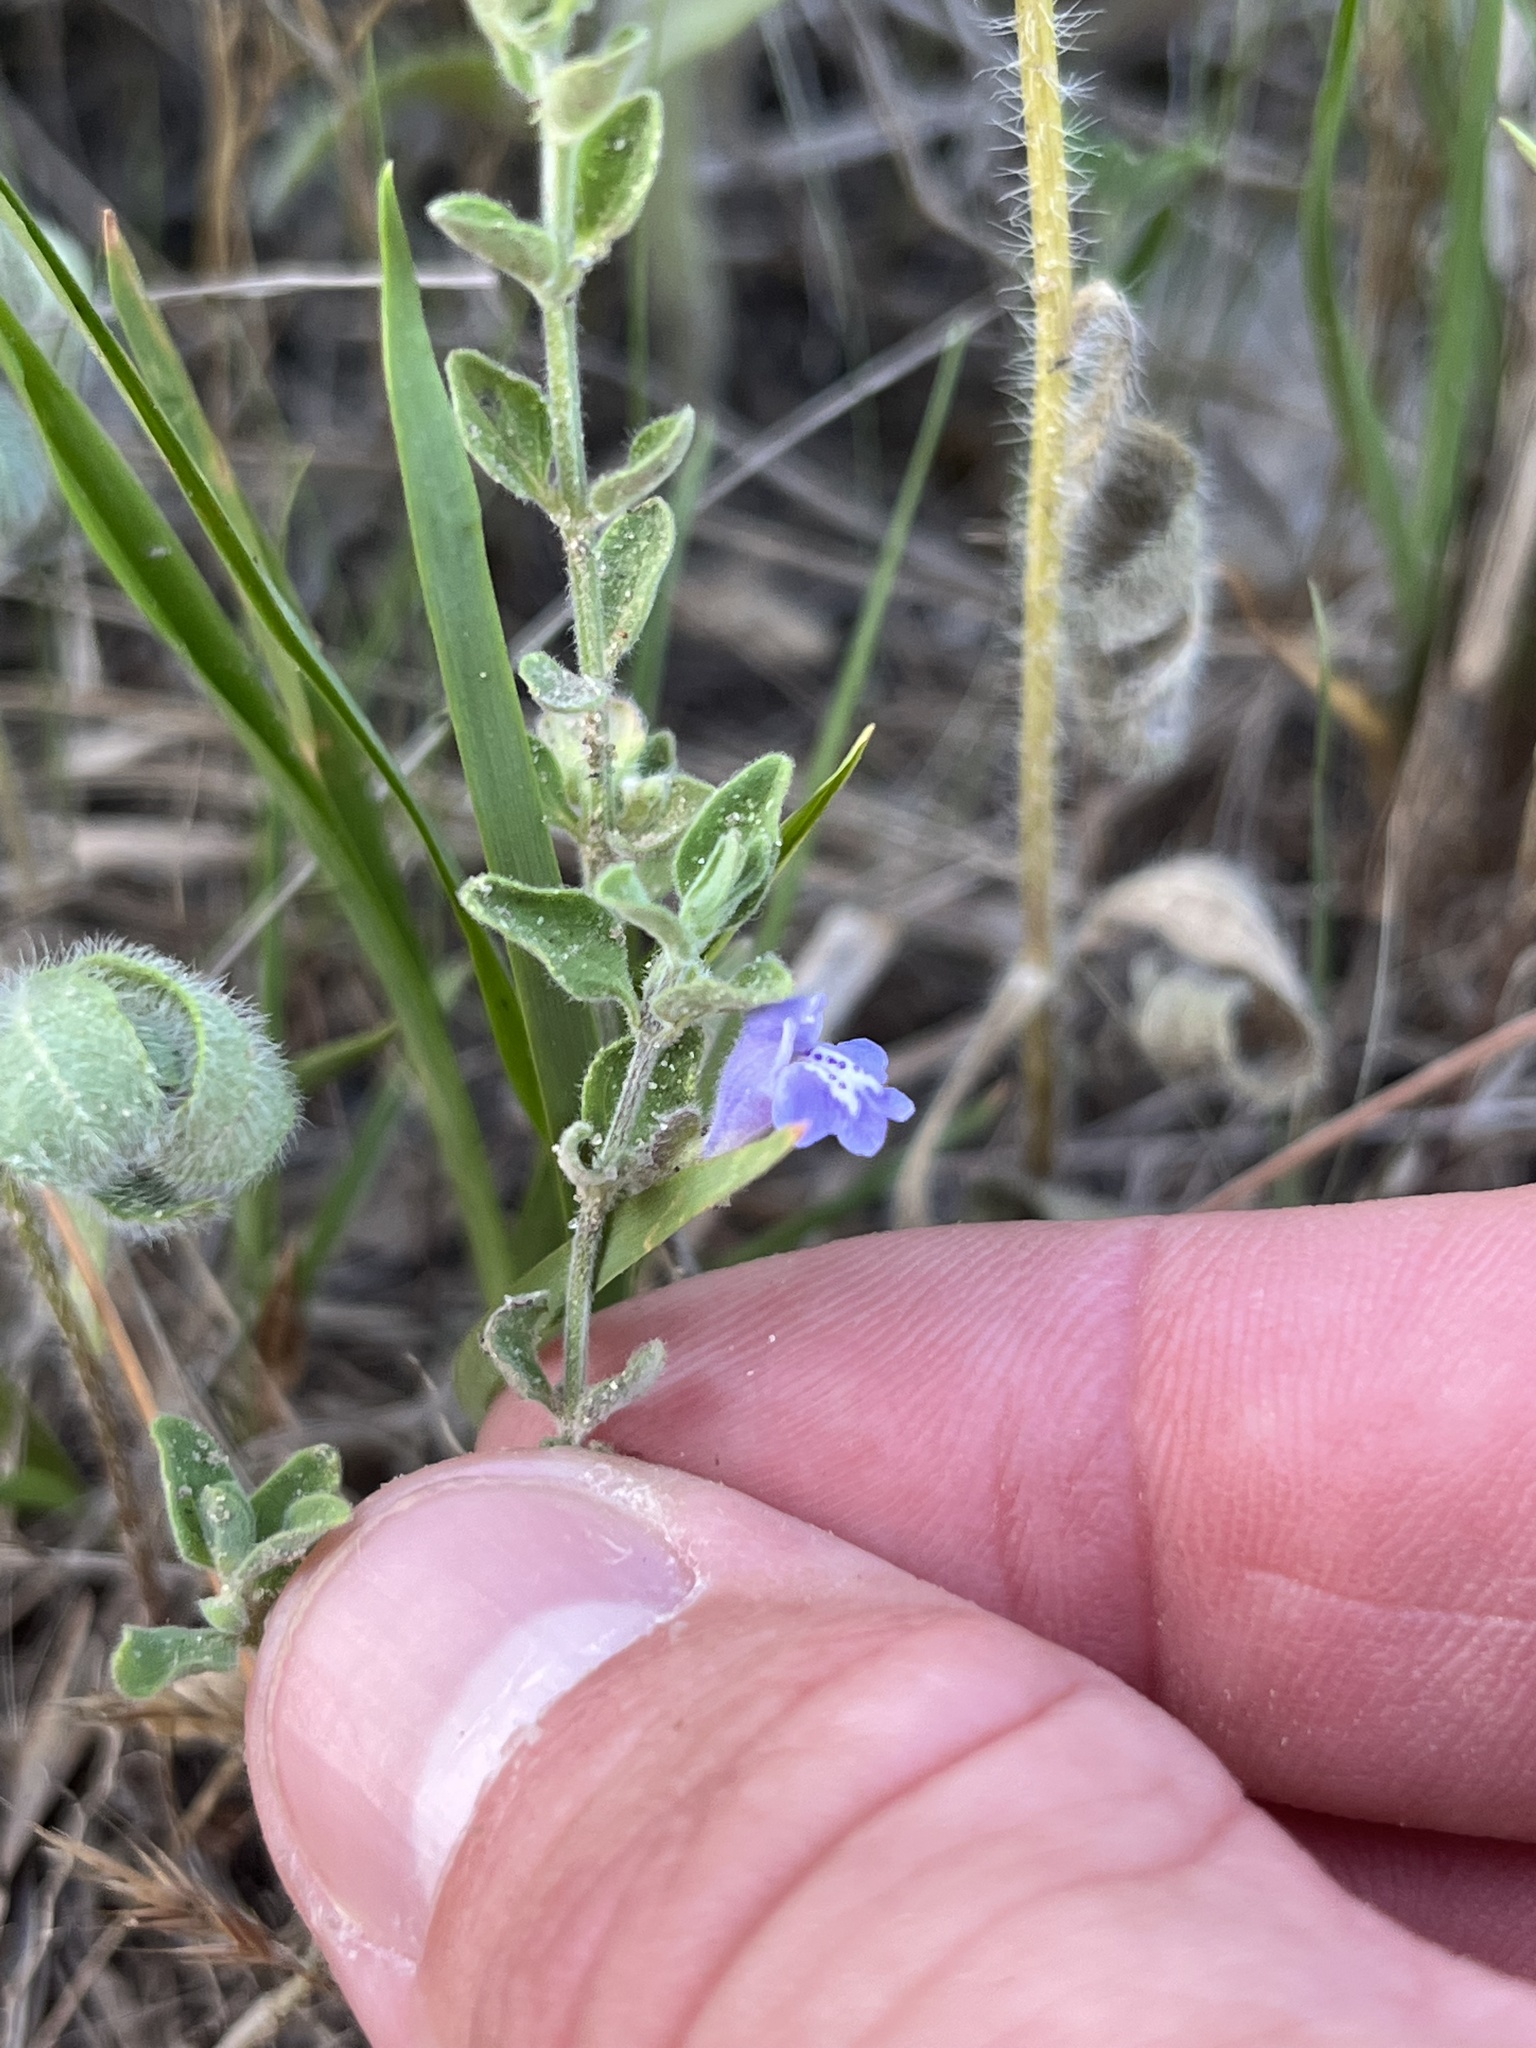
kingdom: Plantae
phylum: Tracheophyta
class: Magnoliopsida
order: Lamiales
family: Lamiaceae
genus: Scutellaria
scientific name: Scutellaria drummondii
